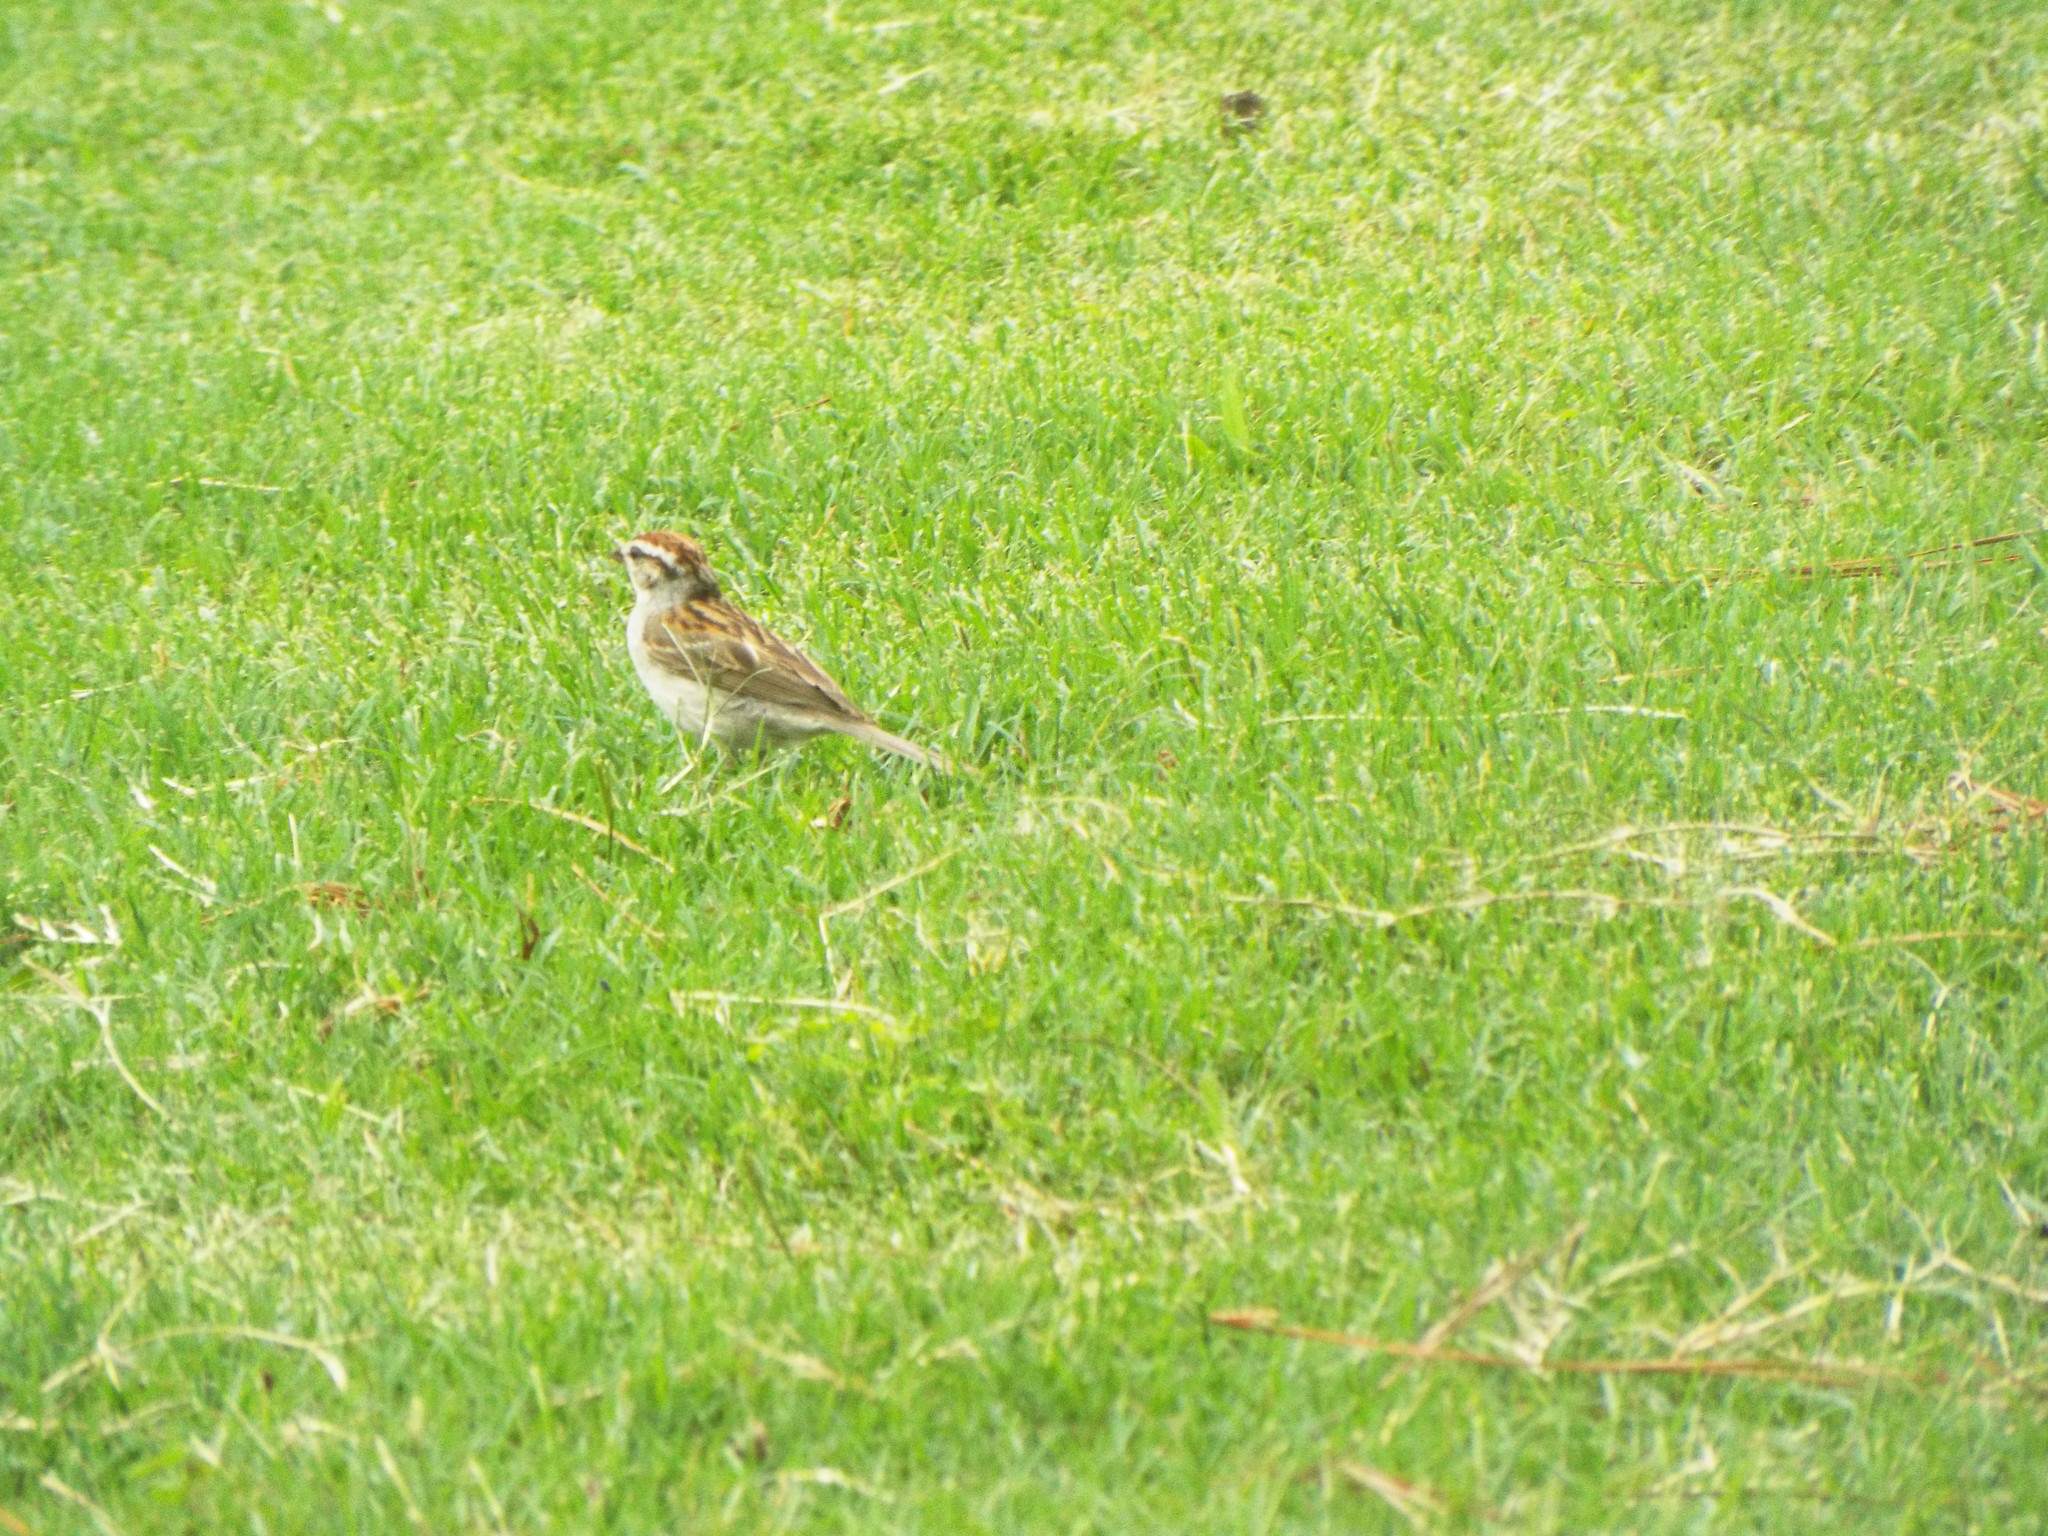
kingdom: Animalia
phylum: Chordata
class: Aves
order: Passeriformes
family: Passerellidae
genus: Spizella
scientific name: Spizella passerina
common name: Chipping sparrow
